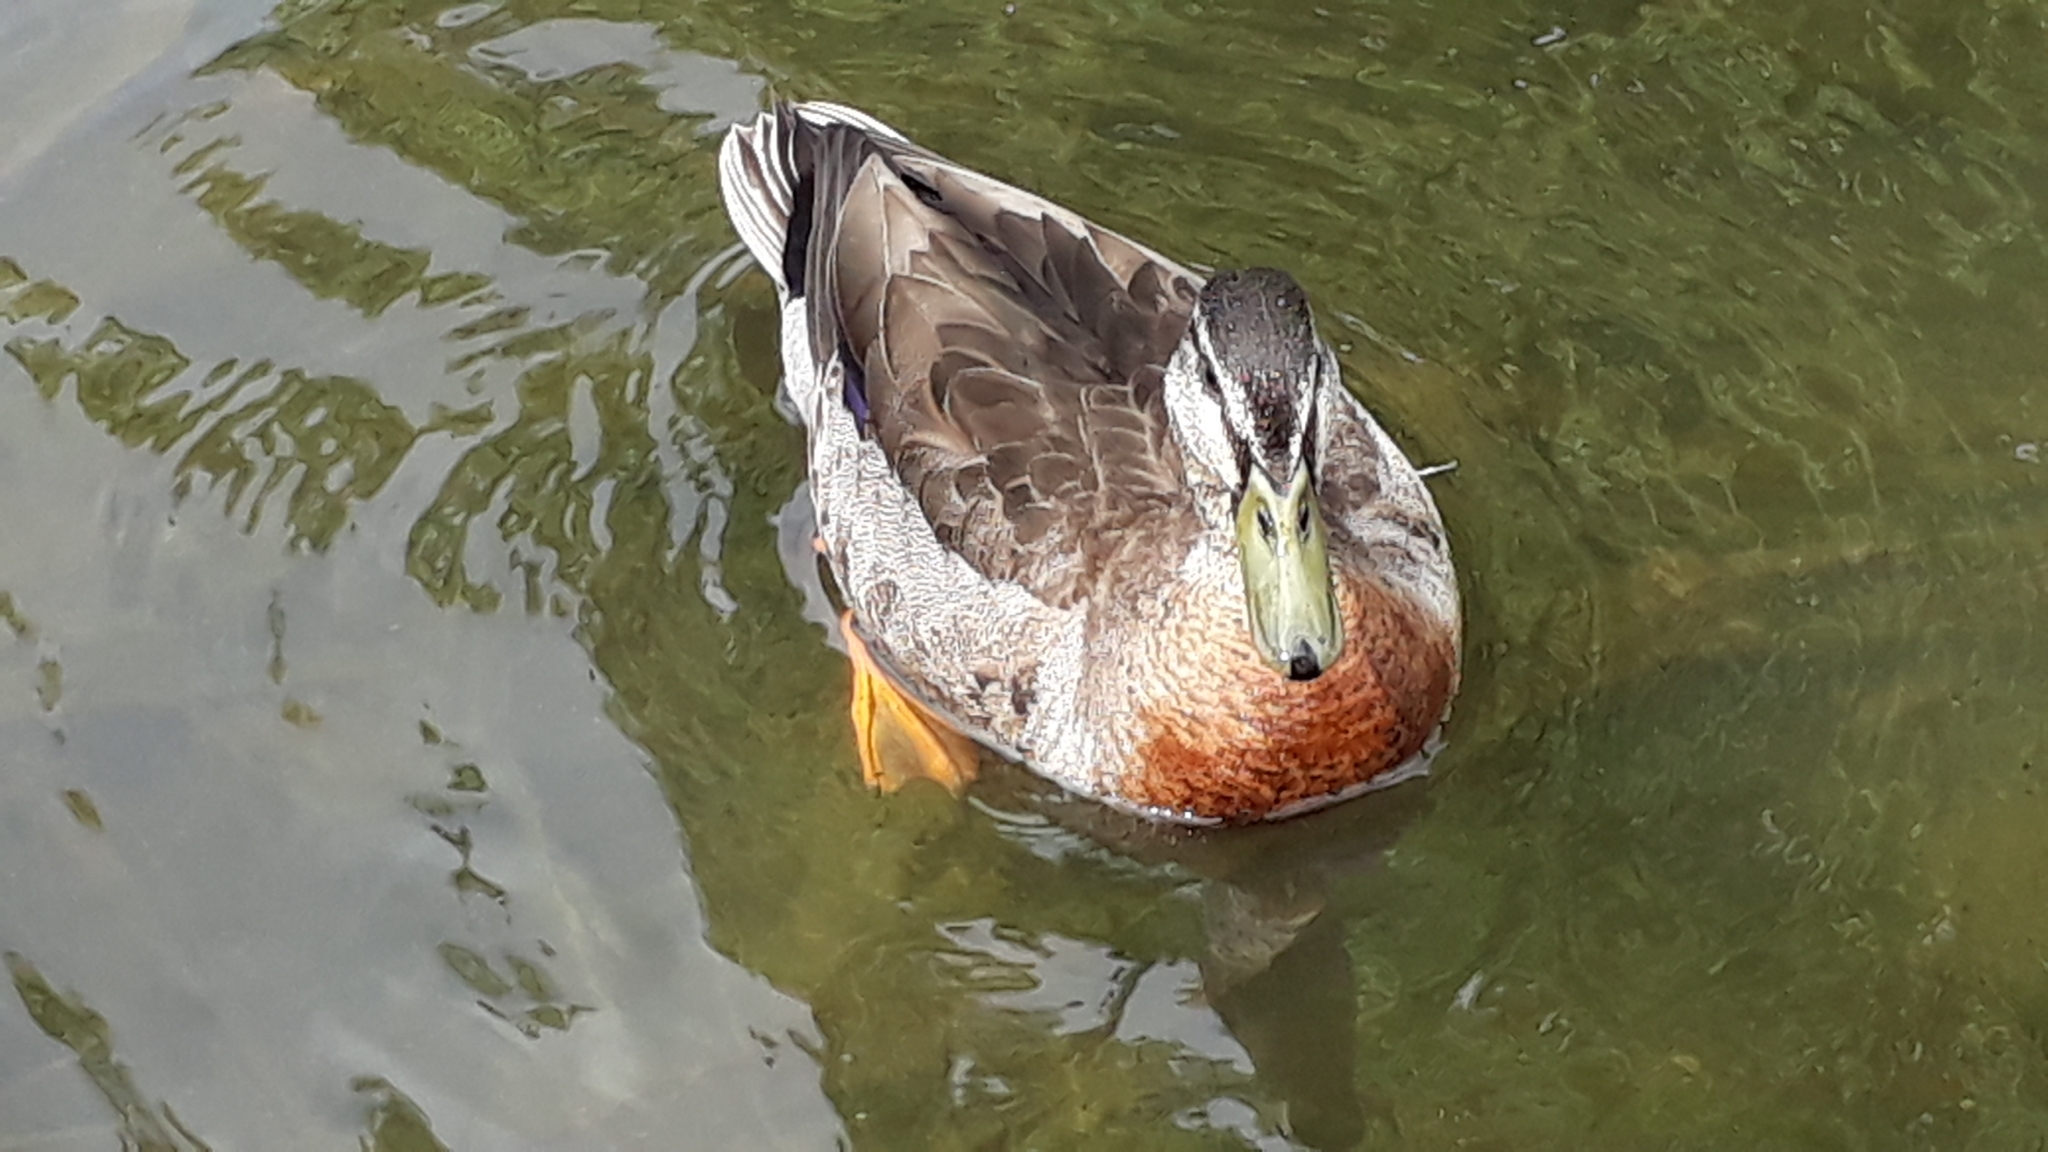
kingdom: Animalia
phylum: Chordata
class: Aves
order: Anseriformes
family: Anatidae
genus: Anas
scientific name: Anas platyrhynchos
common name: Mallard
